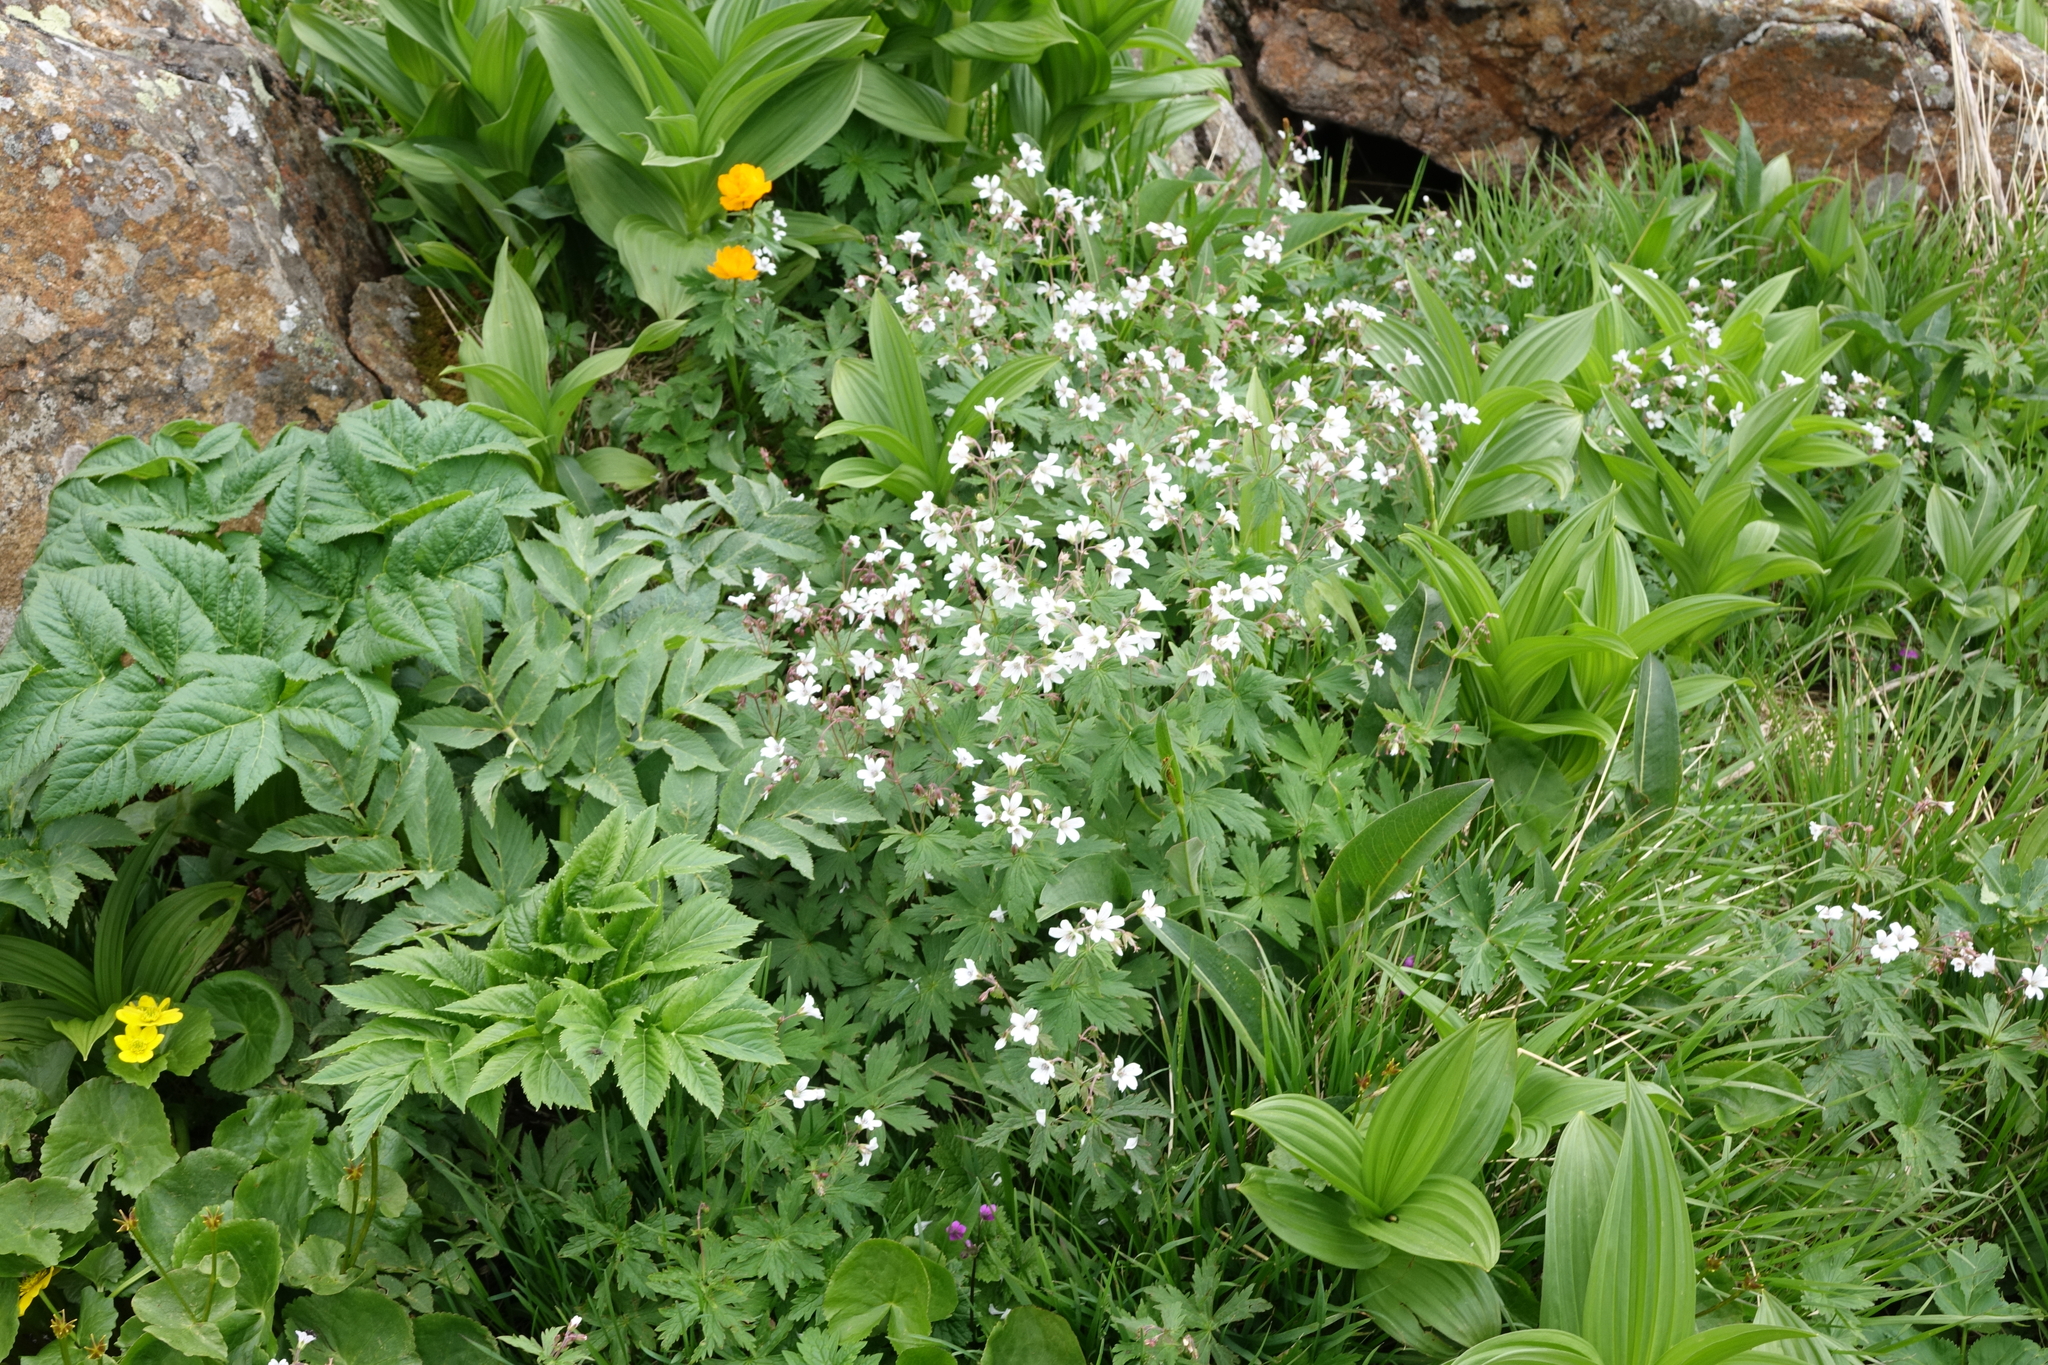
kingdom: Plantae
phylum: Tracheophyta
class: Magnoliopsida
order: Geraniales
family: Geraniaceae
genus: Geranium
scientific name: Geranium sylvaticum
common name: Wood crane's-bill
